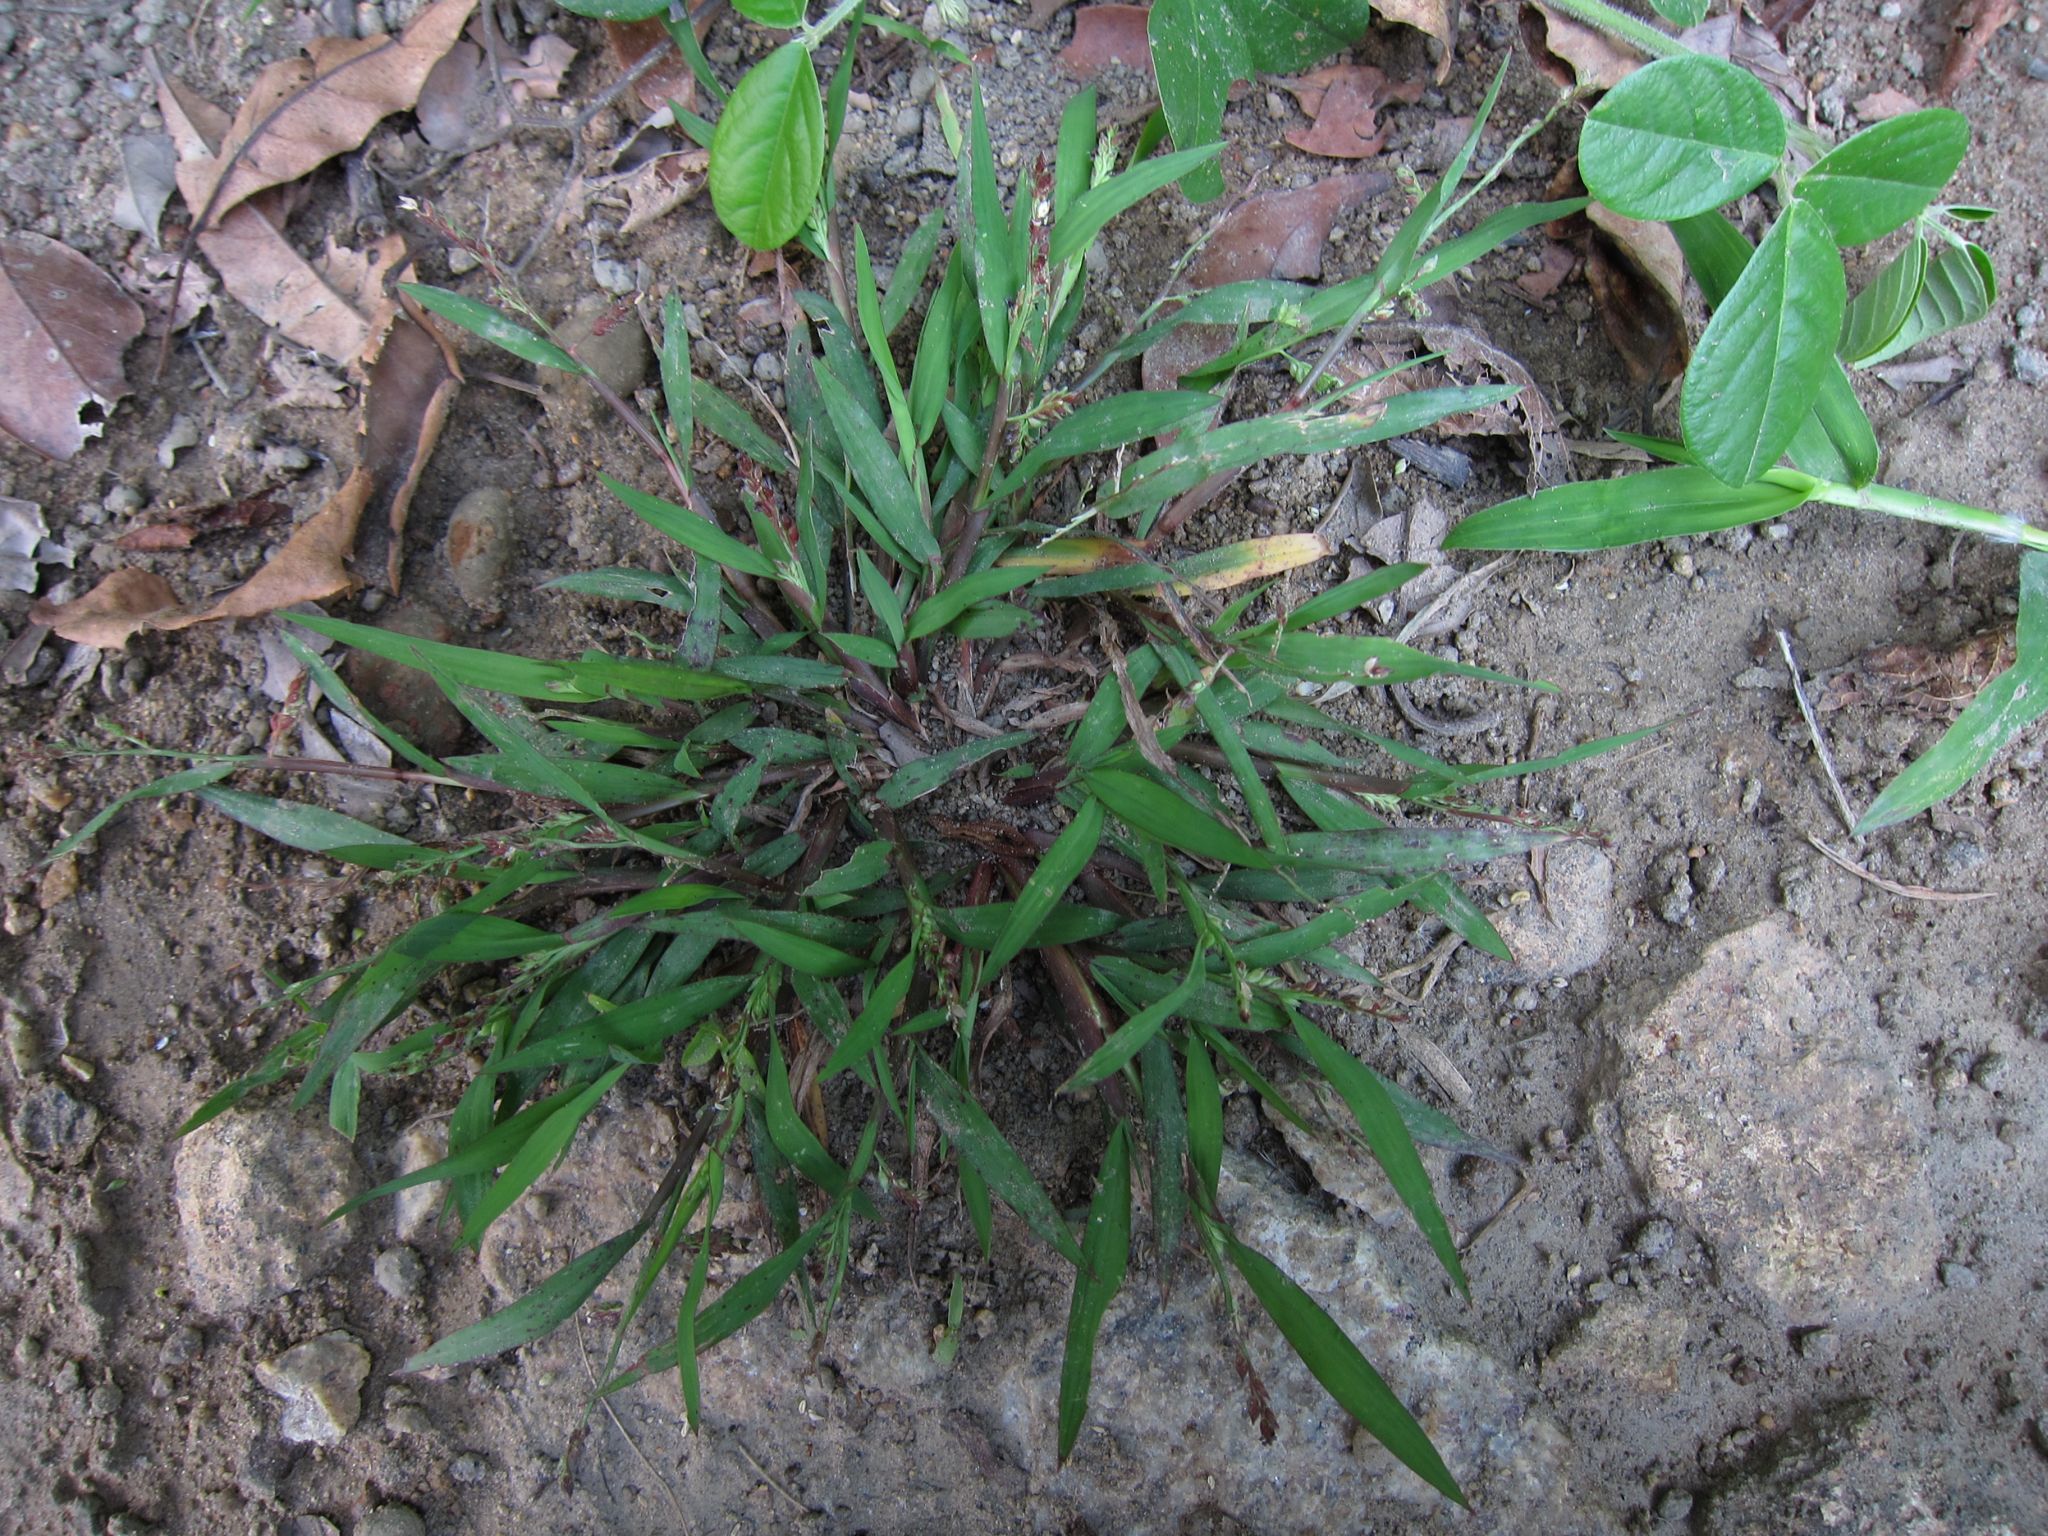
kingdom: Plantae
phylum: Tracheophyta
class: Liliopsida
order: Poales
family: Poaceae
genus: Echinochloa
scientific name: Echinochloa colonum
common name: Jungle rice
